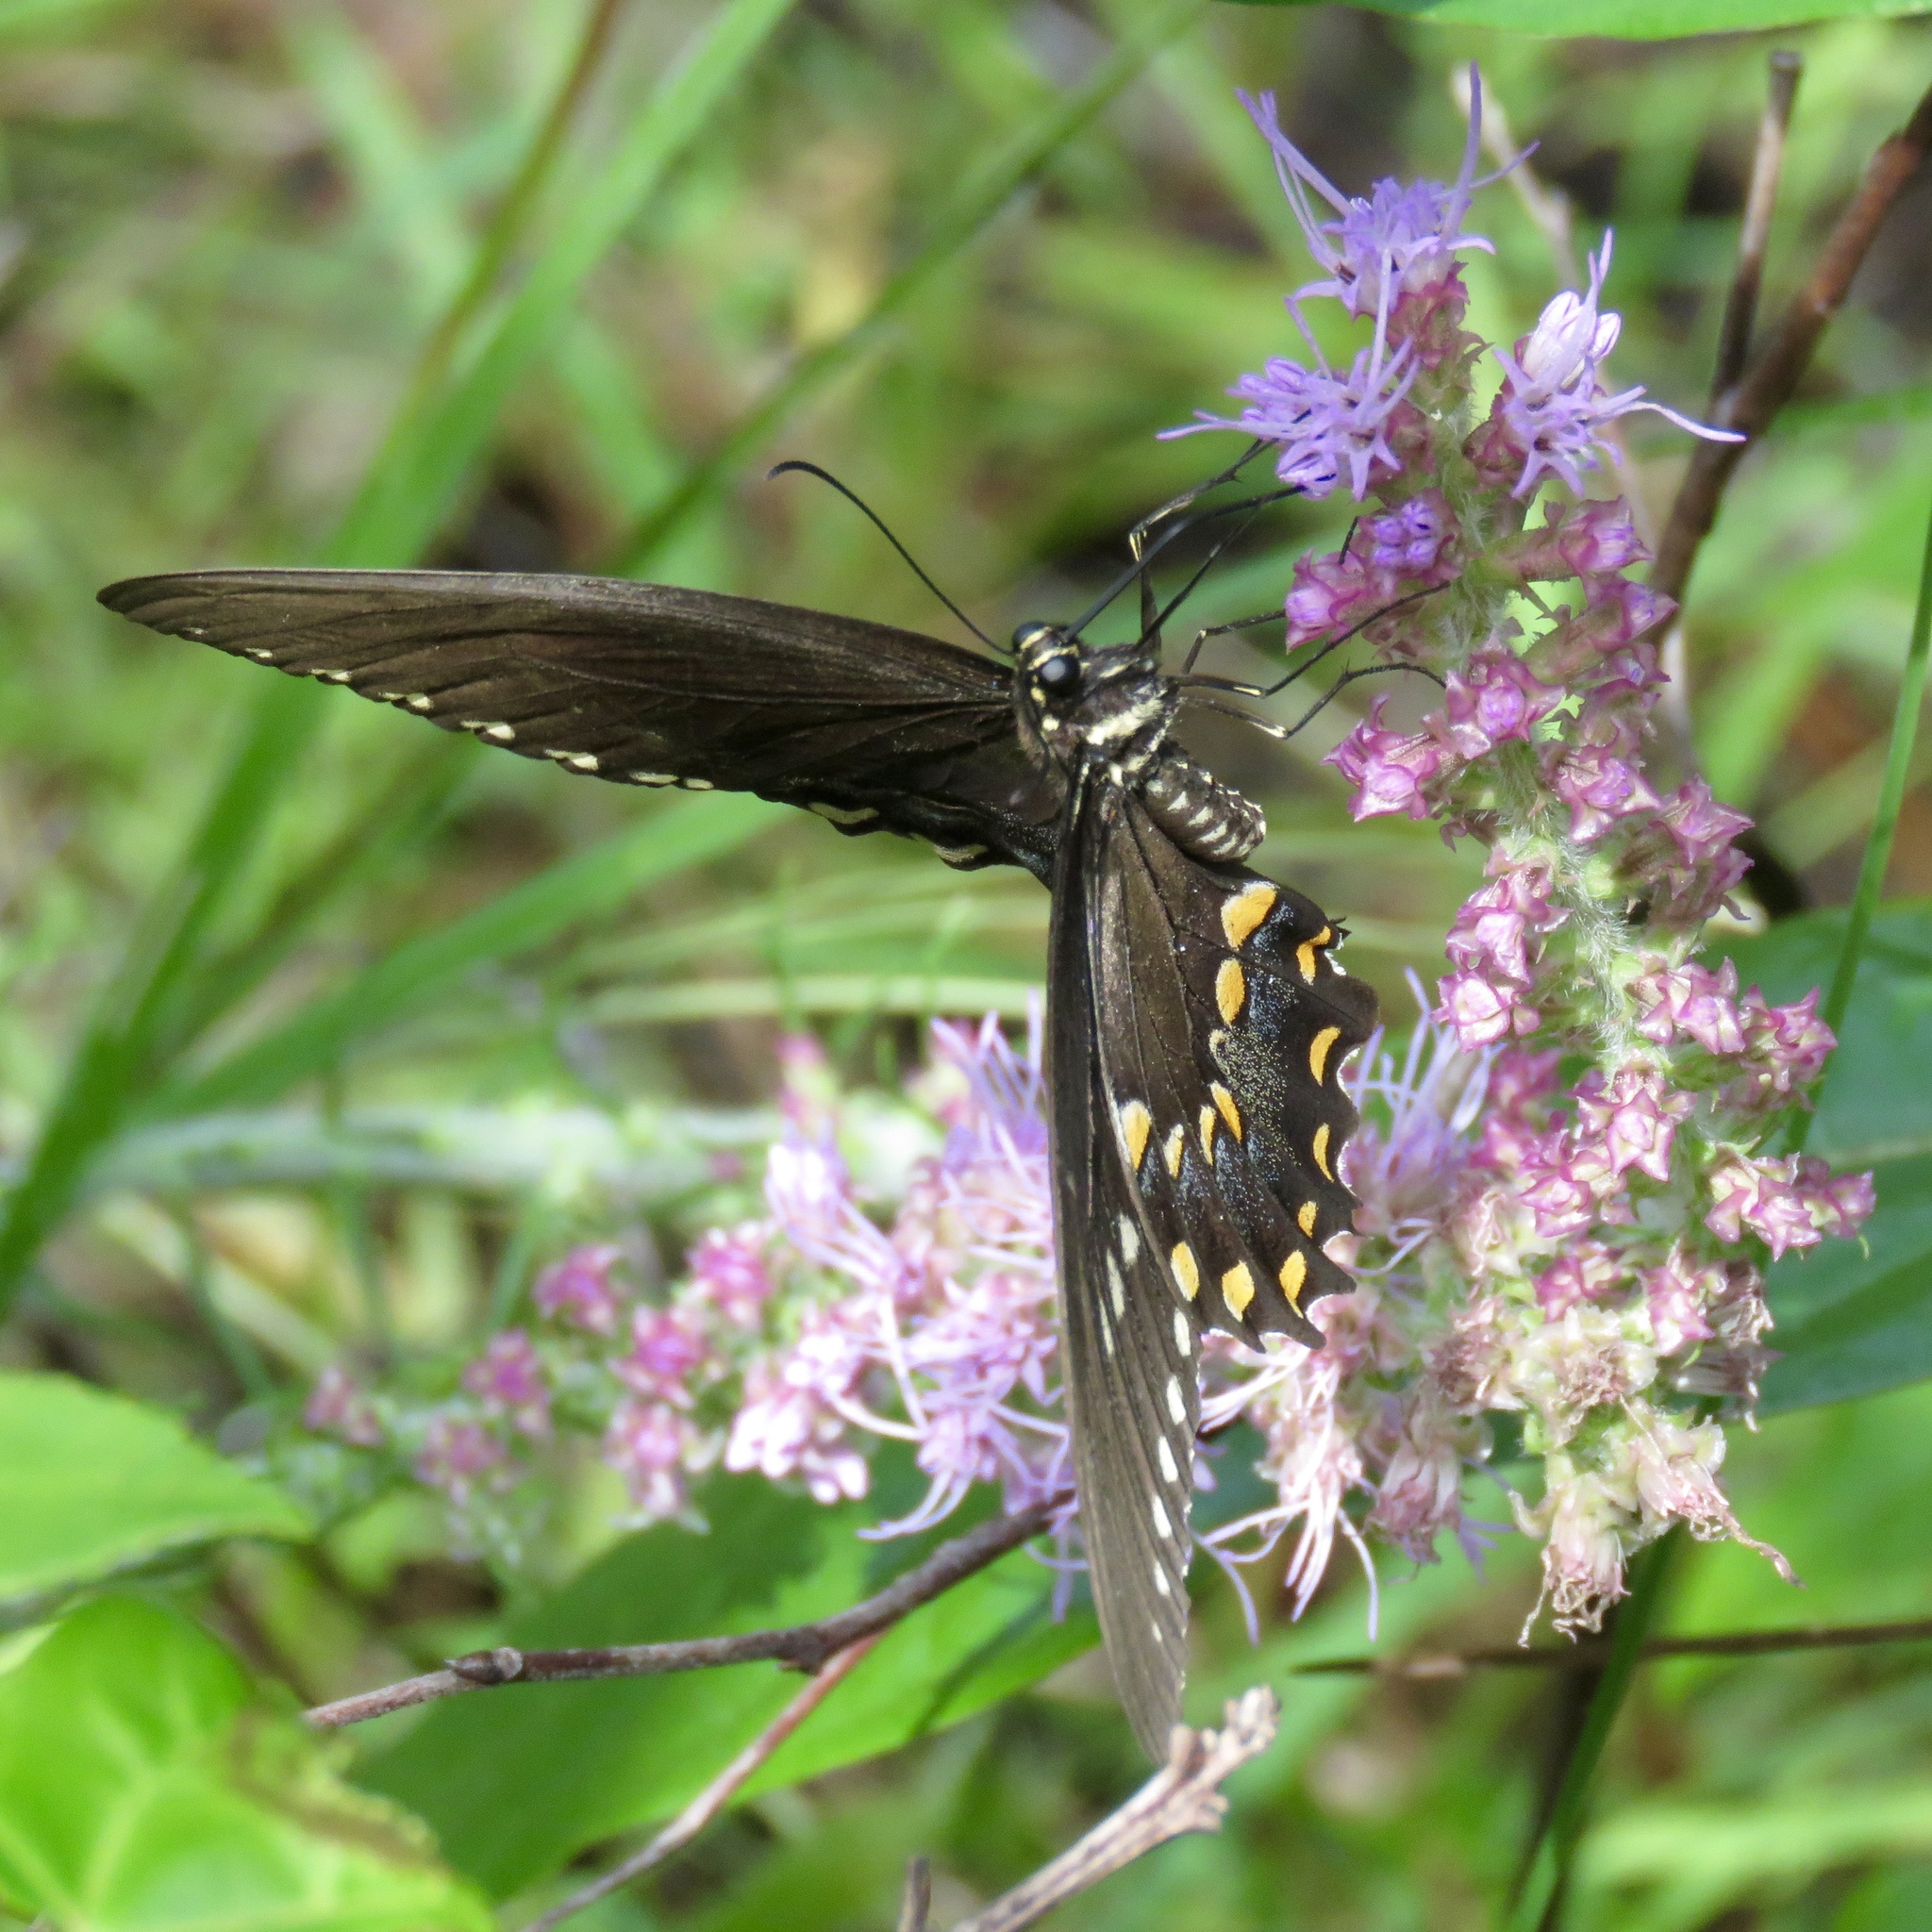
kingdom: Animalia
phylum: Arthropoda
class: Insecta
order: Lepidoptera
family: Papilionidae
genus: Papilio
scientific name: Papilio troilus
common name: Spicebush swallowtail
